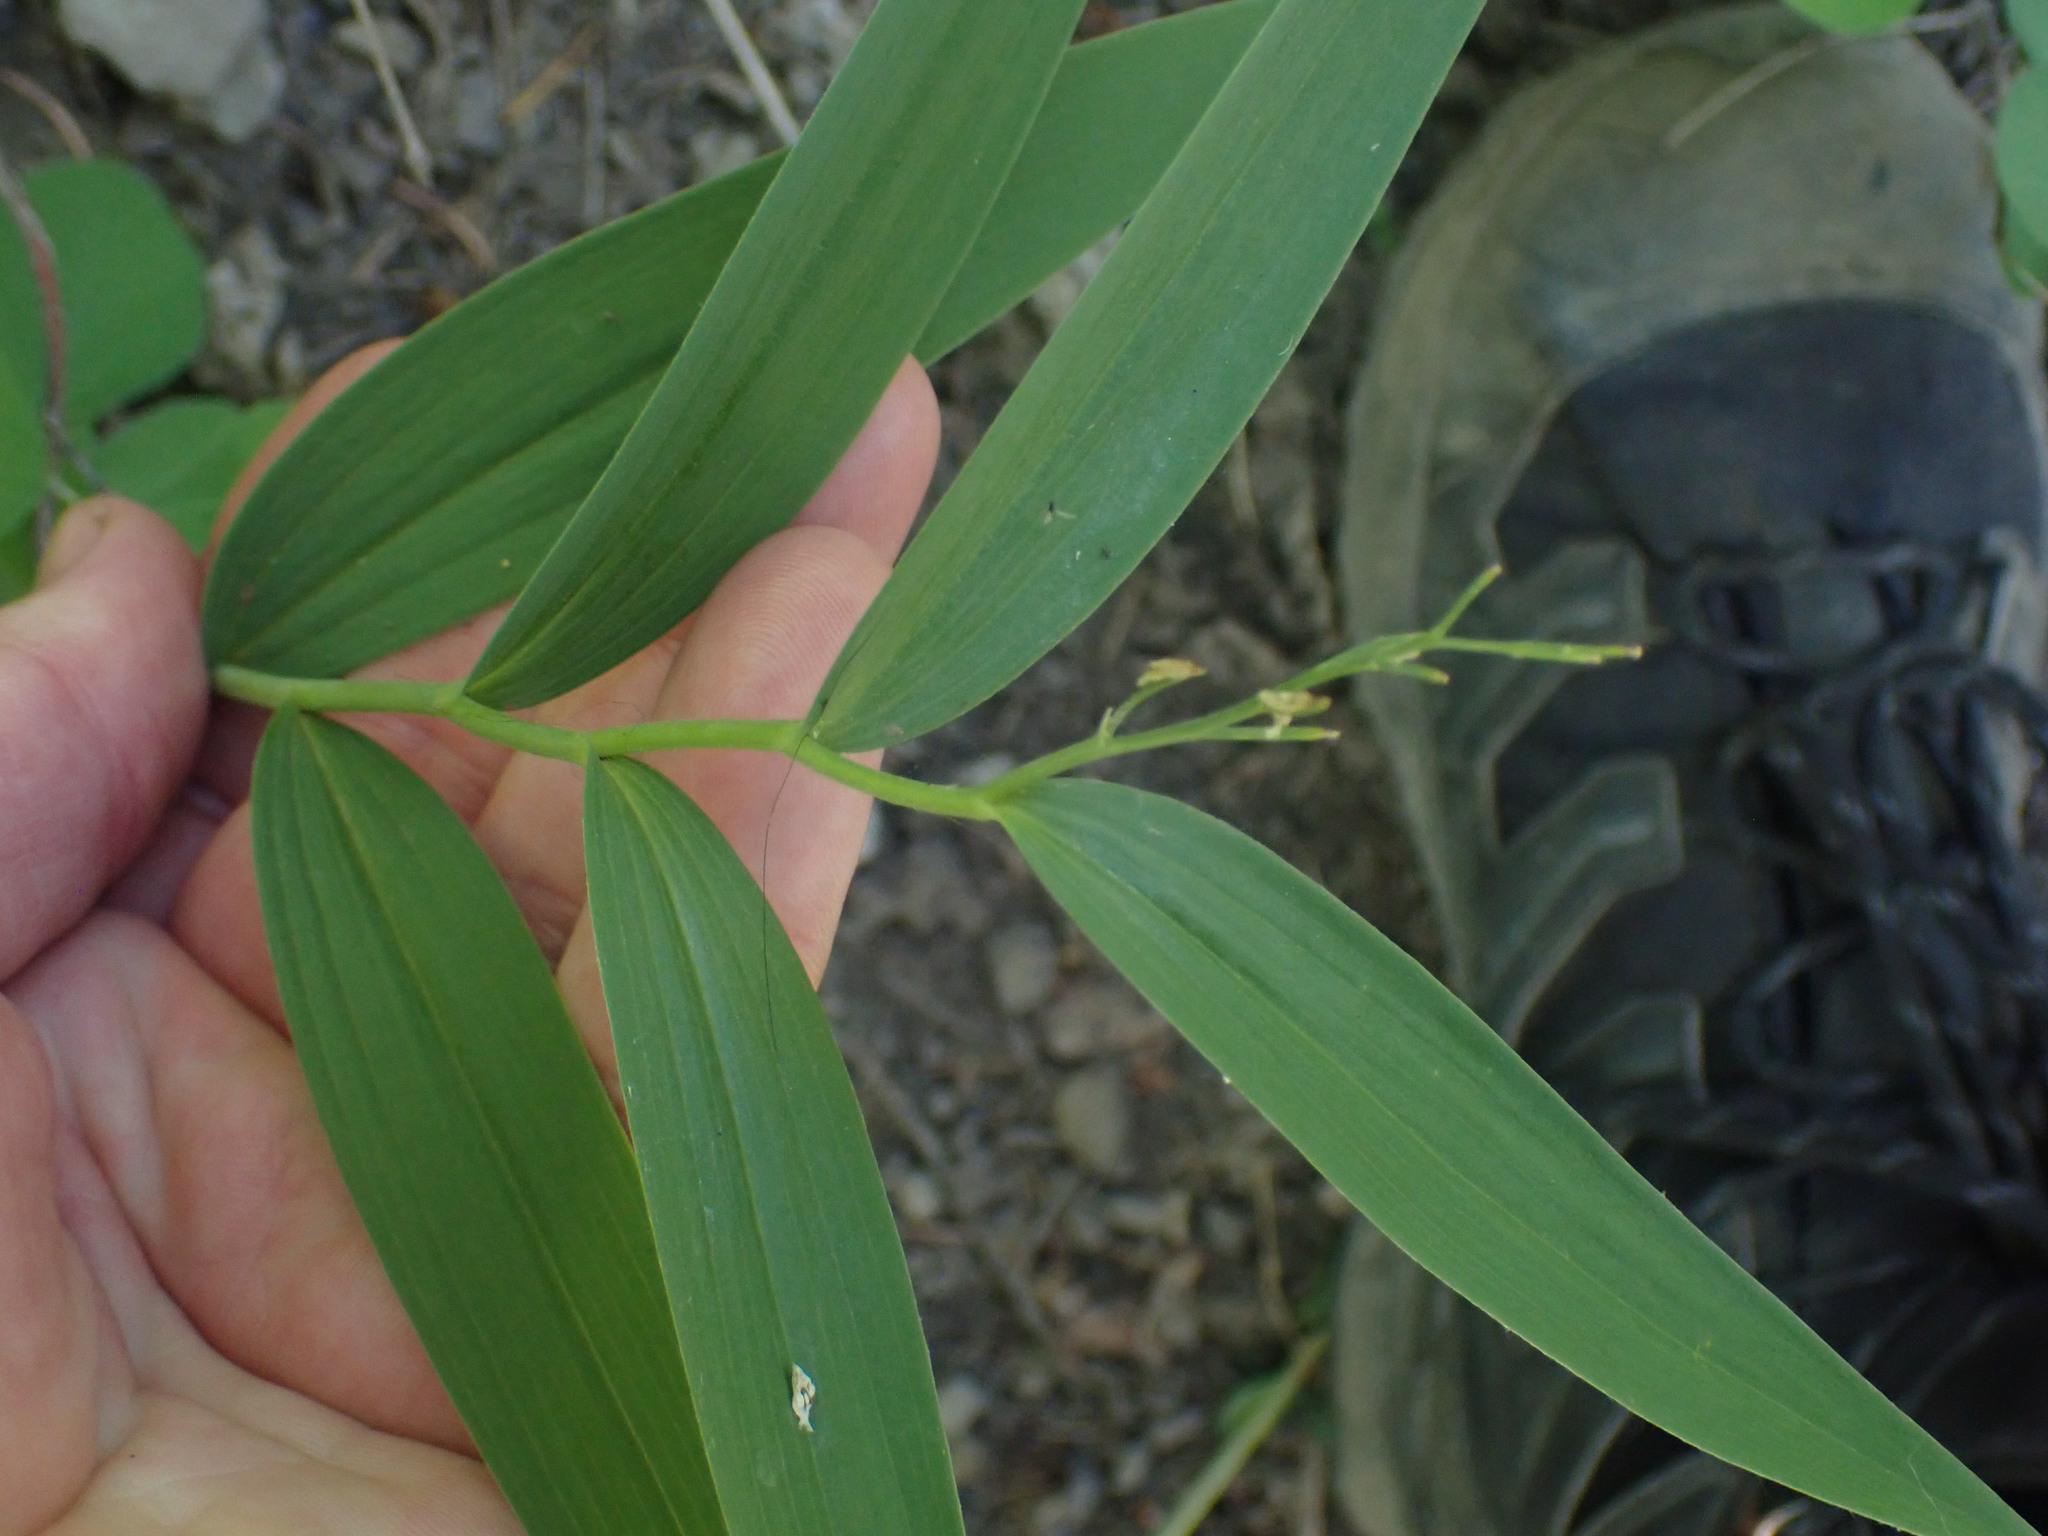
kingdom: Plantae
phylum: Tracheophyta
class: Liliopsida
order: Asparagales
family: Asparagaceae
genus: Maianthemum
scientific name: Maianthemum stellatum
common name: Little false solomon's seal
